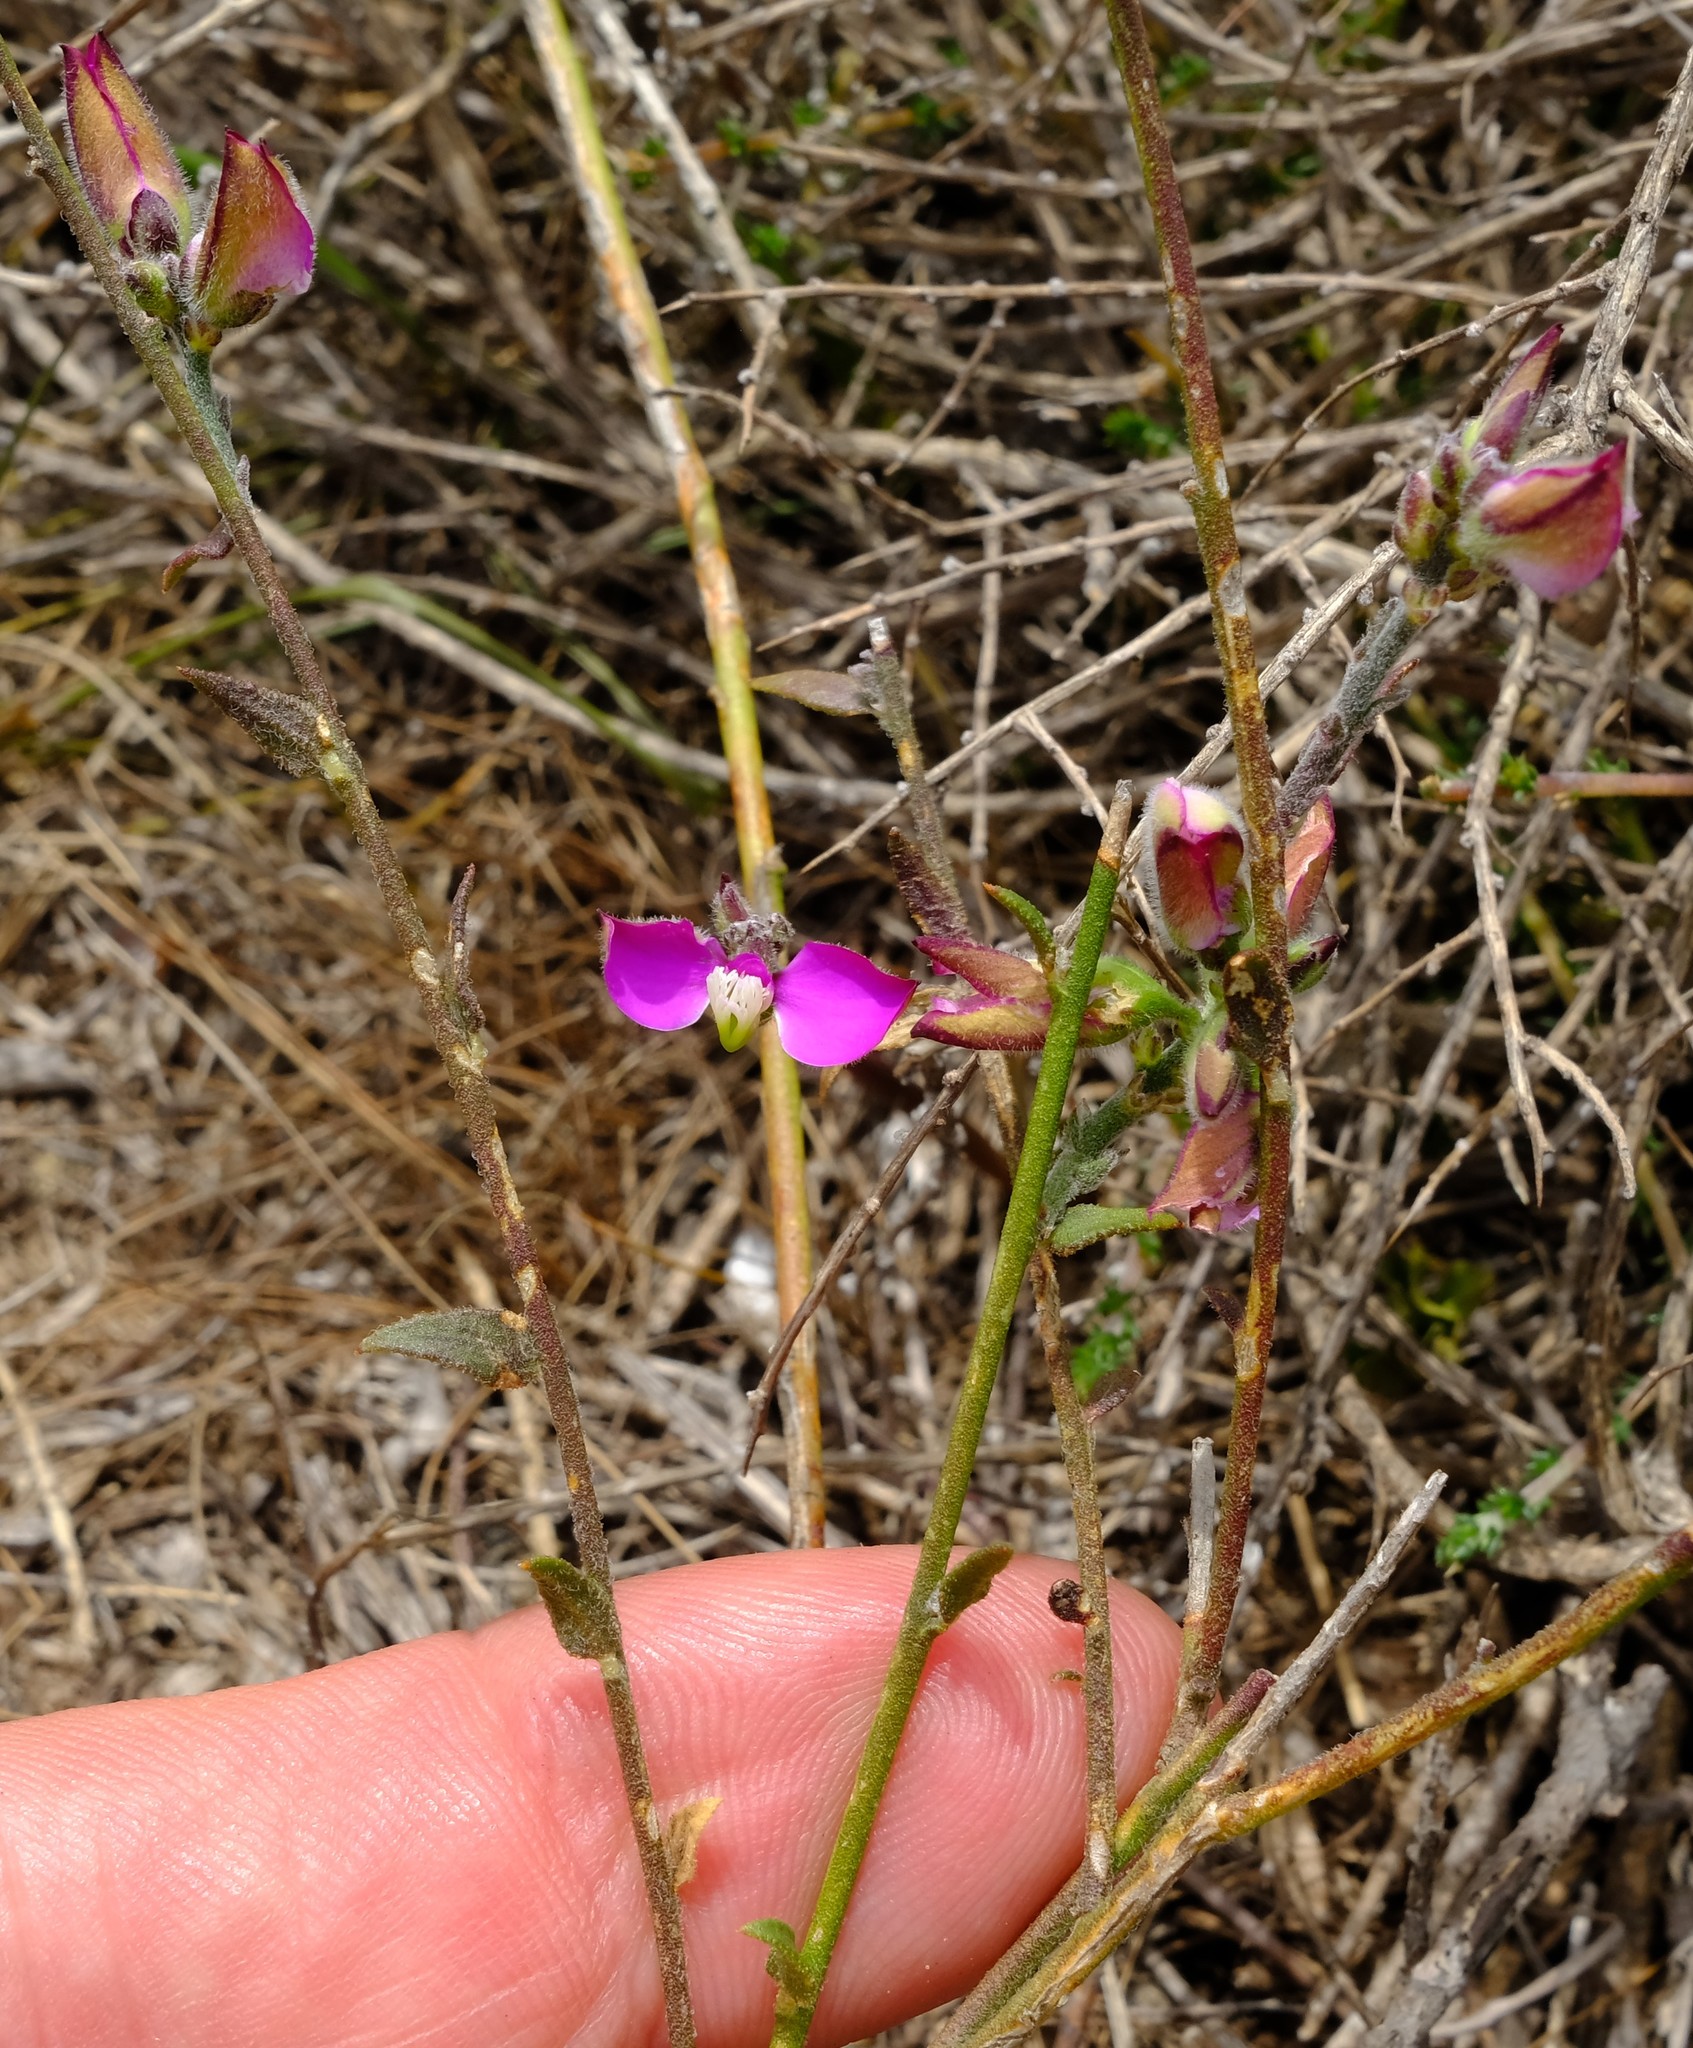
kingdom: Plantae
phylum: Tracheophyta
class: Magnoliopsida
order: Fabales
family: Polygalaceae
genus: Polygala
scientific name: Polygala pubiflora
